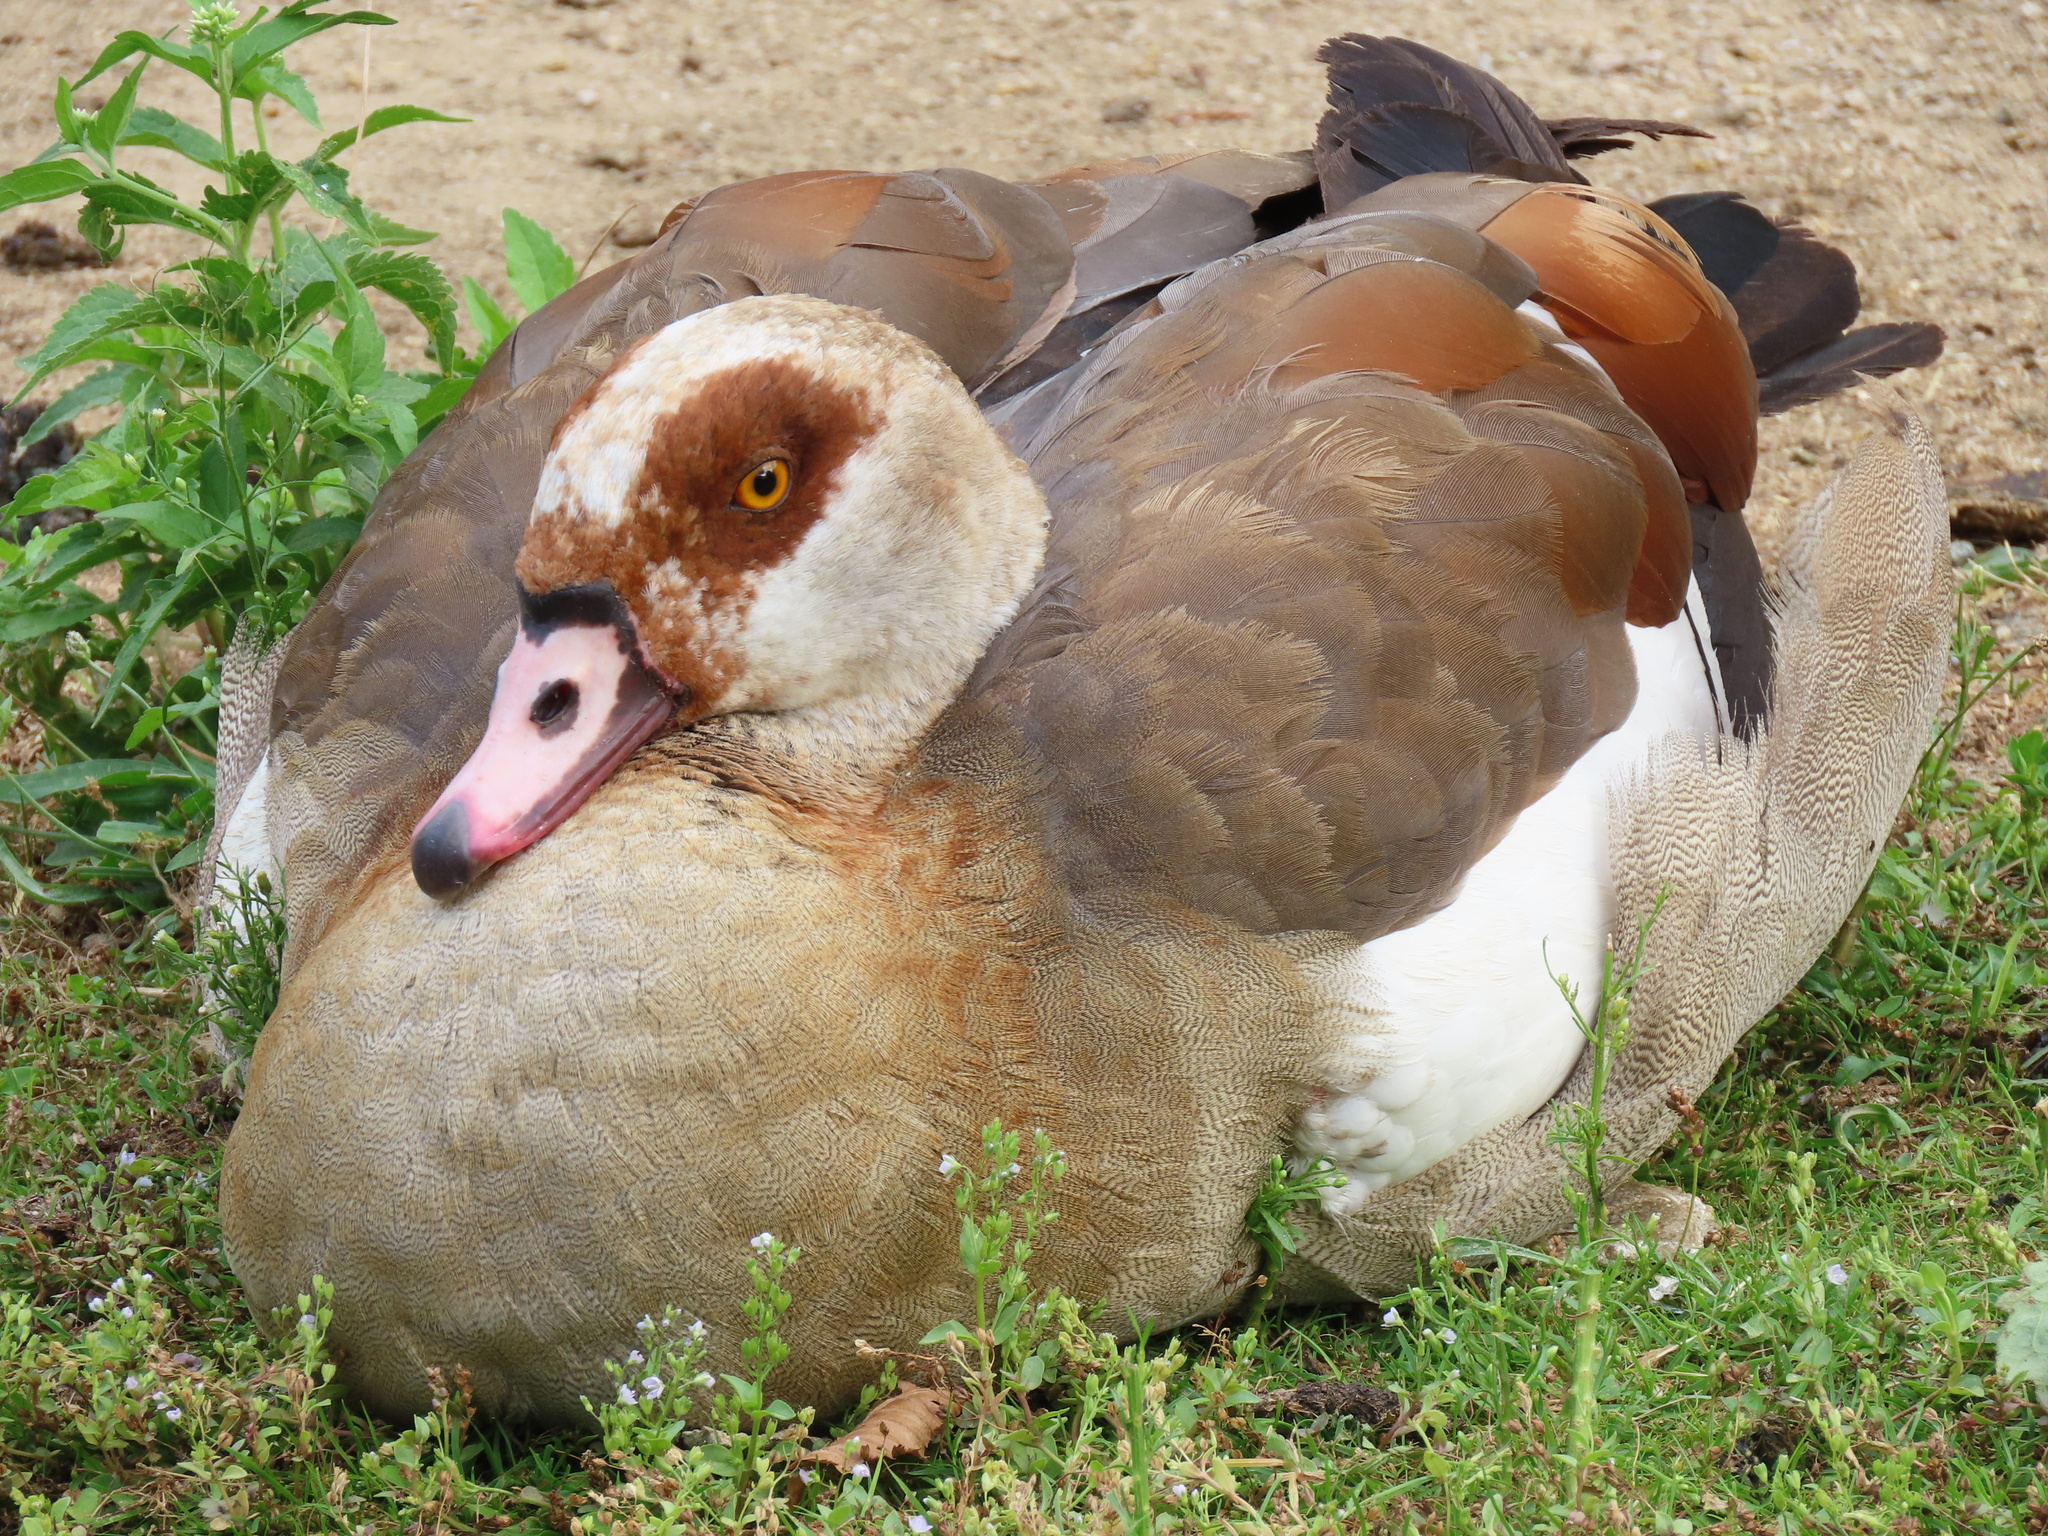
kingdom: Animalia
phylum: Chordata
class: Aves
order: Anseriformes
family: Anatidae
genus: Alopochen
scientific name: Alopochen aegyptiaca
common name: Egyptian goose
